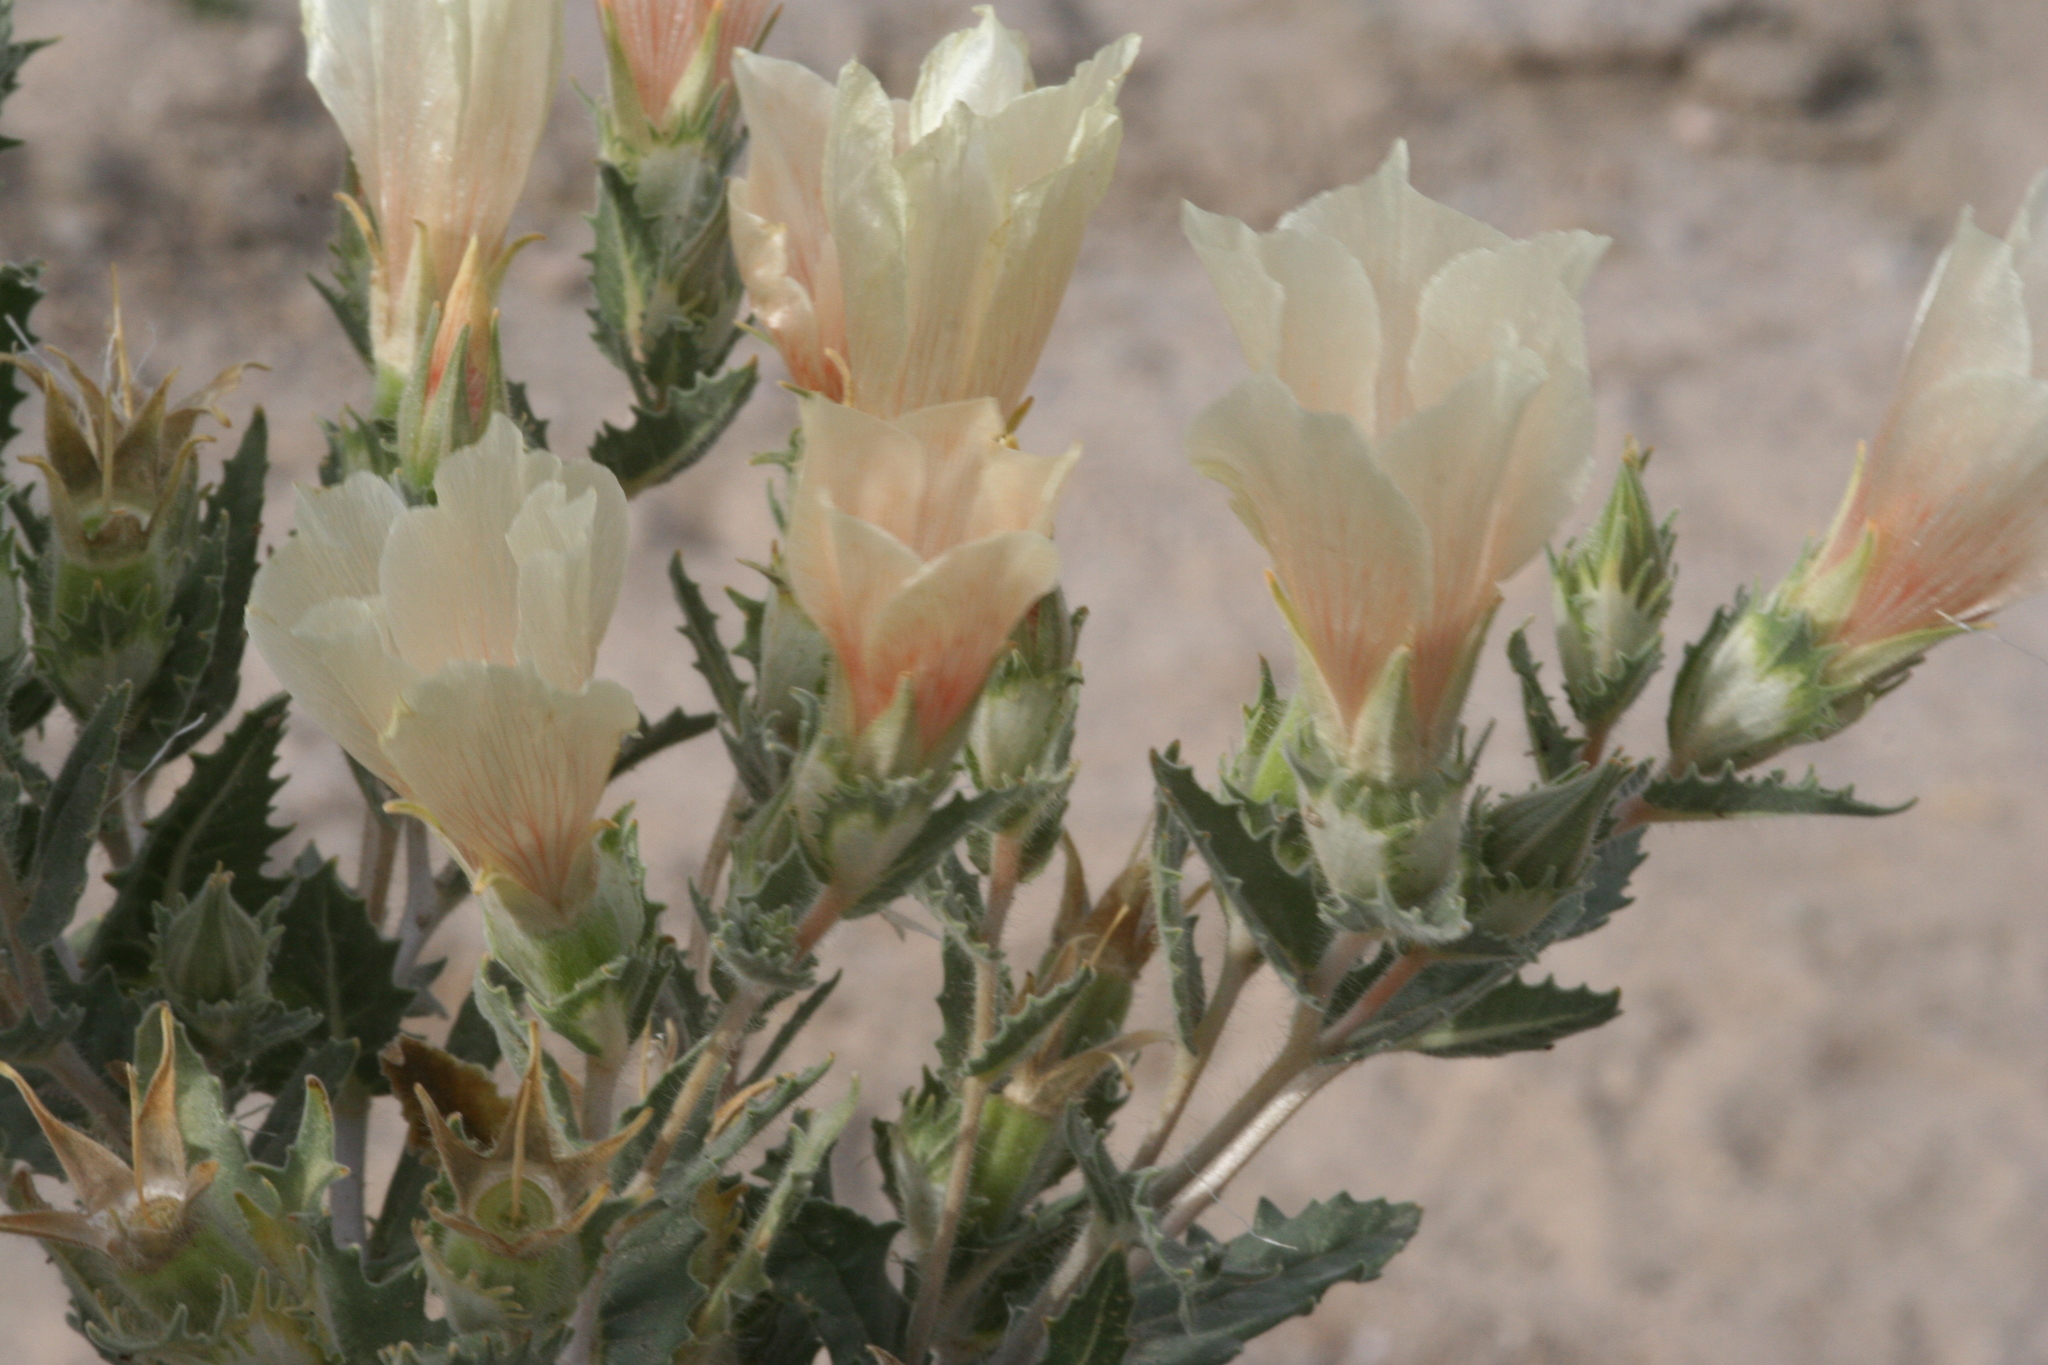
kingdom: Plantae
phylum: Tracheophyta
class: Magnoliopsida
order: Cornales
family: Loasaceae
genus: Mentzelia
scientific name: Mentzelia involucrata
